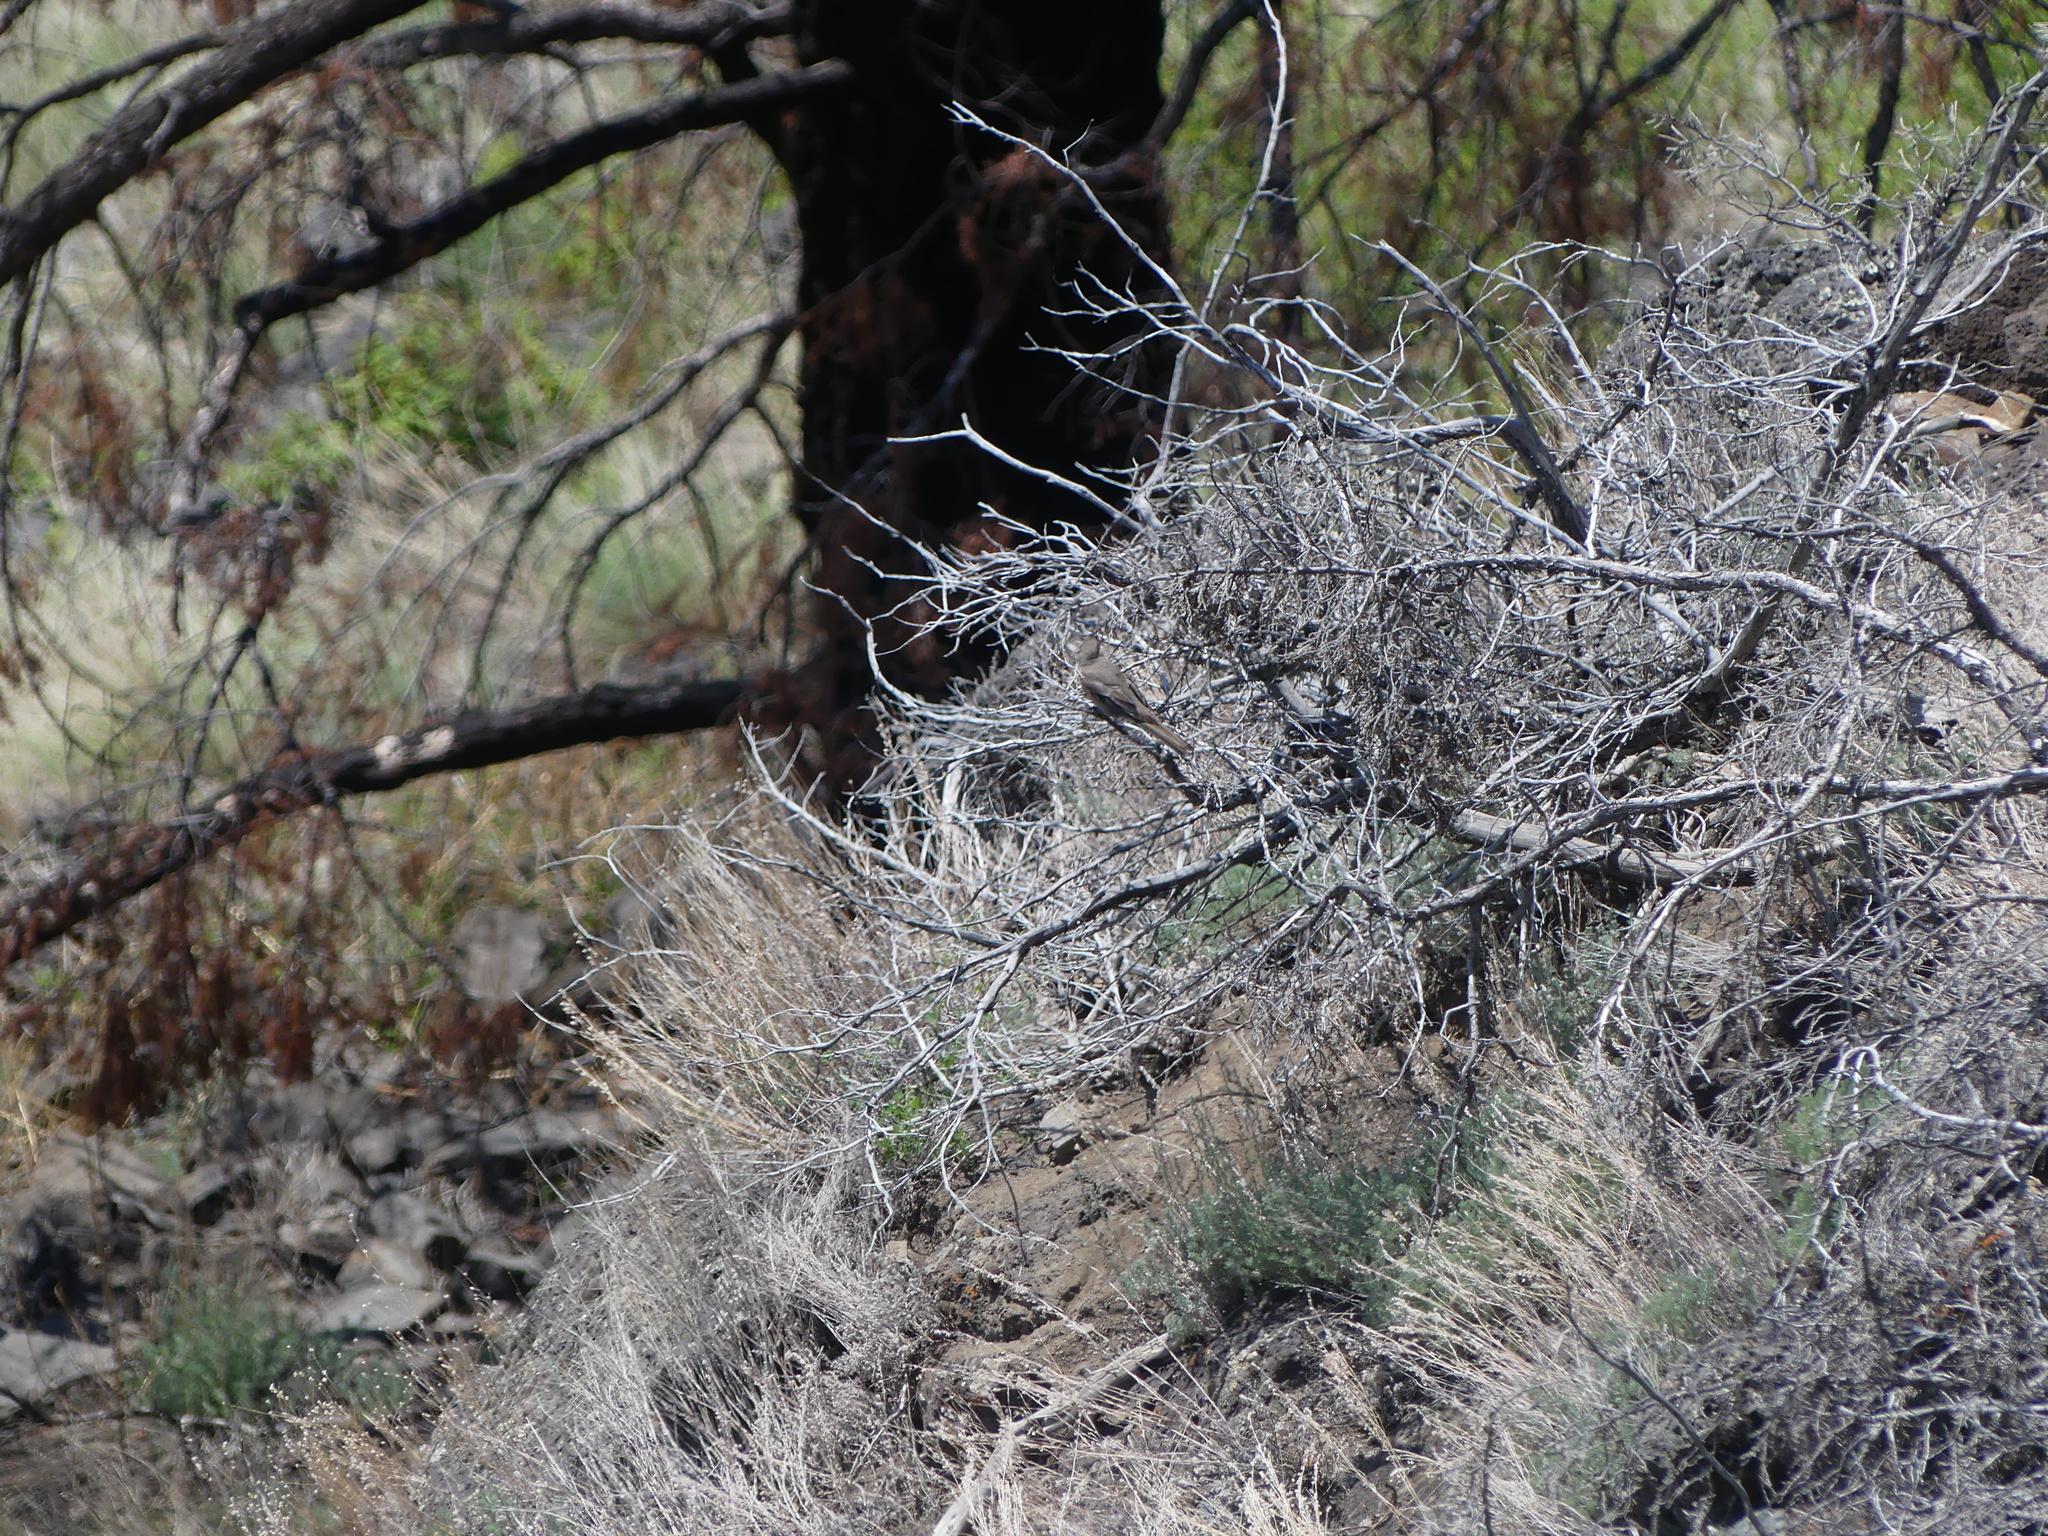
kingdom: Animalia
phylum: Chordata
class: Aves
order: Passeriformes
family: Turdidae
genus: Myadestes
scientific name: Myadestes townsendi
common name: Townsend's solitaire
